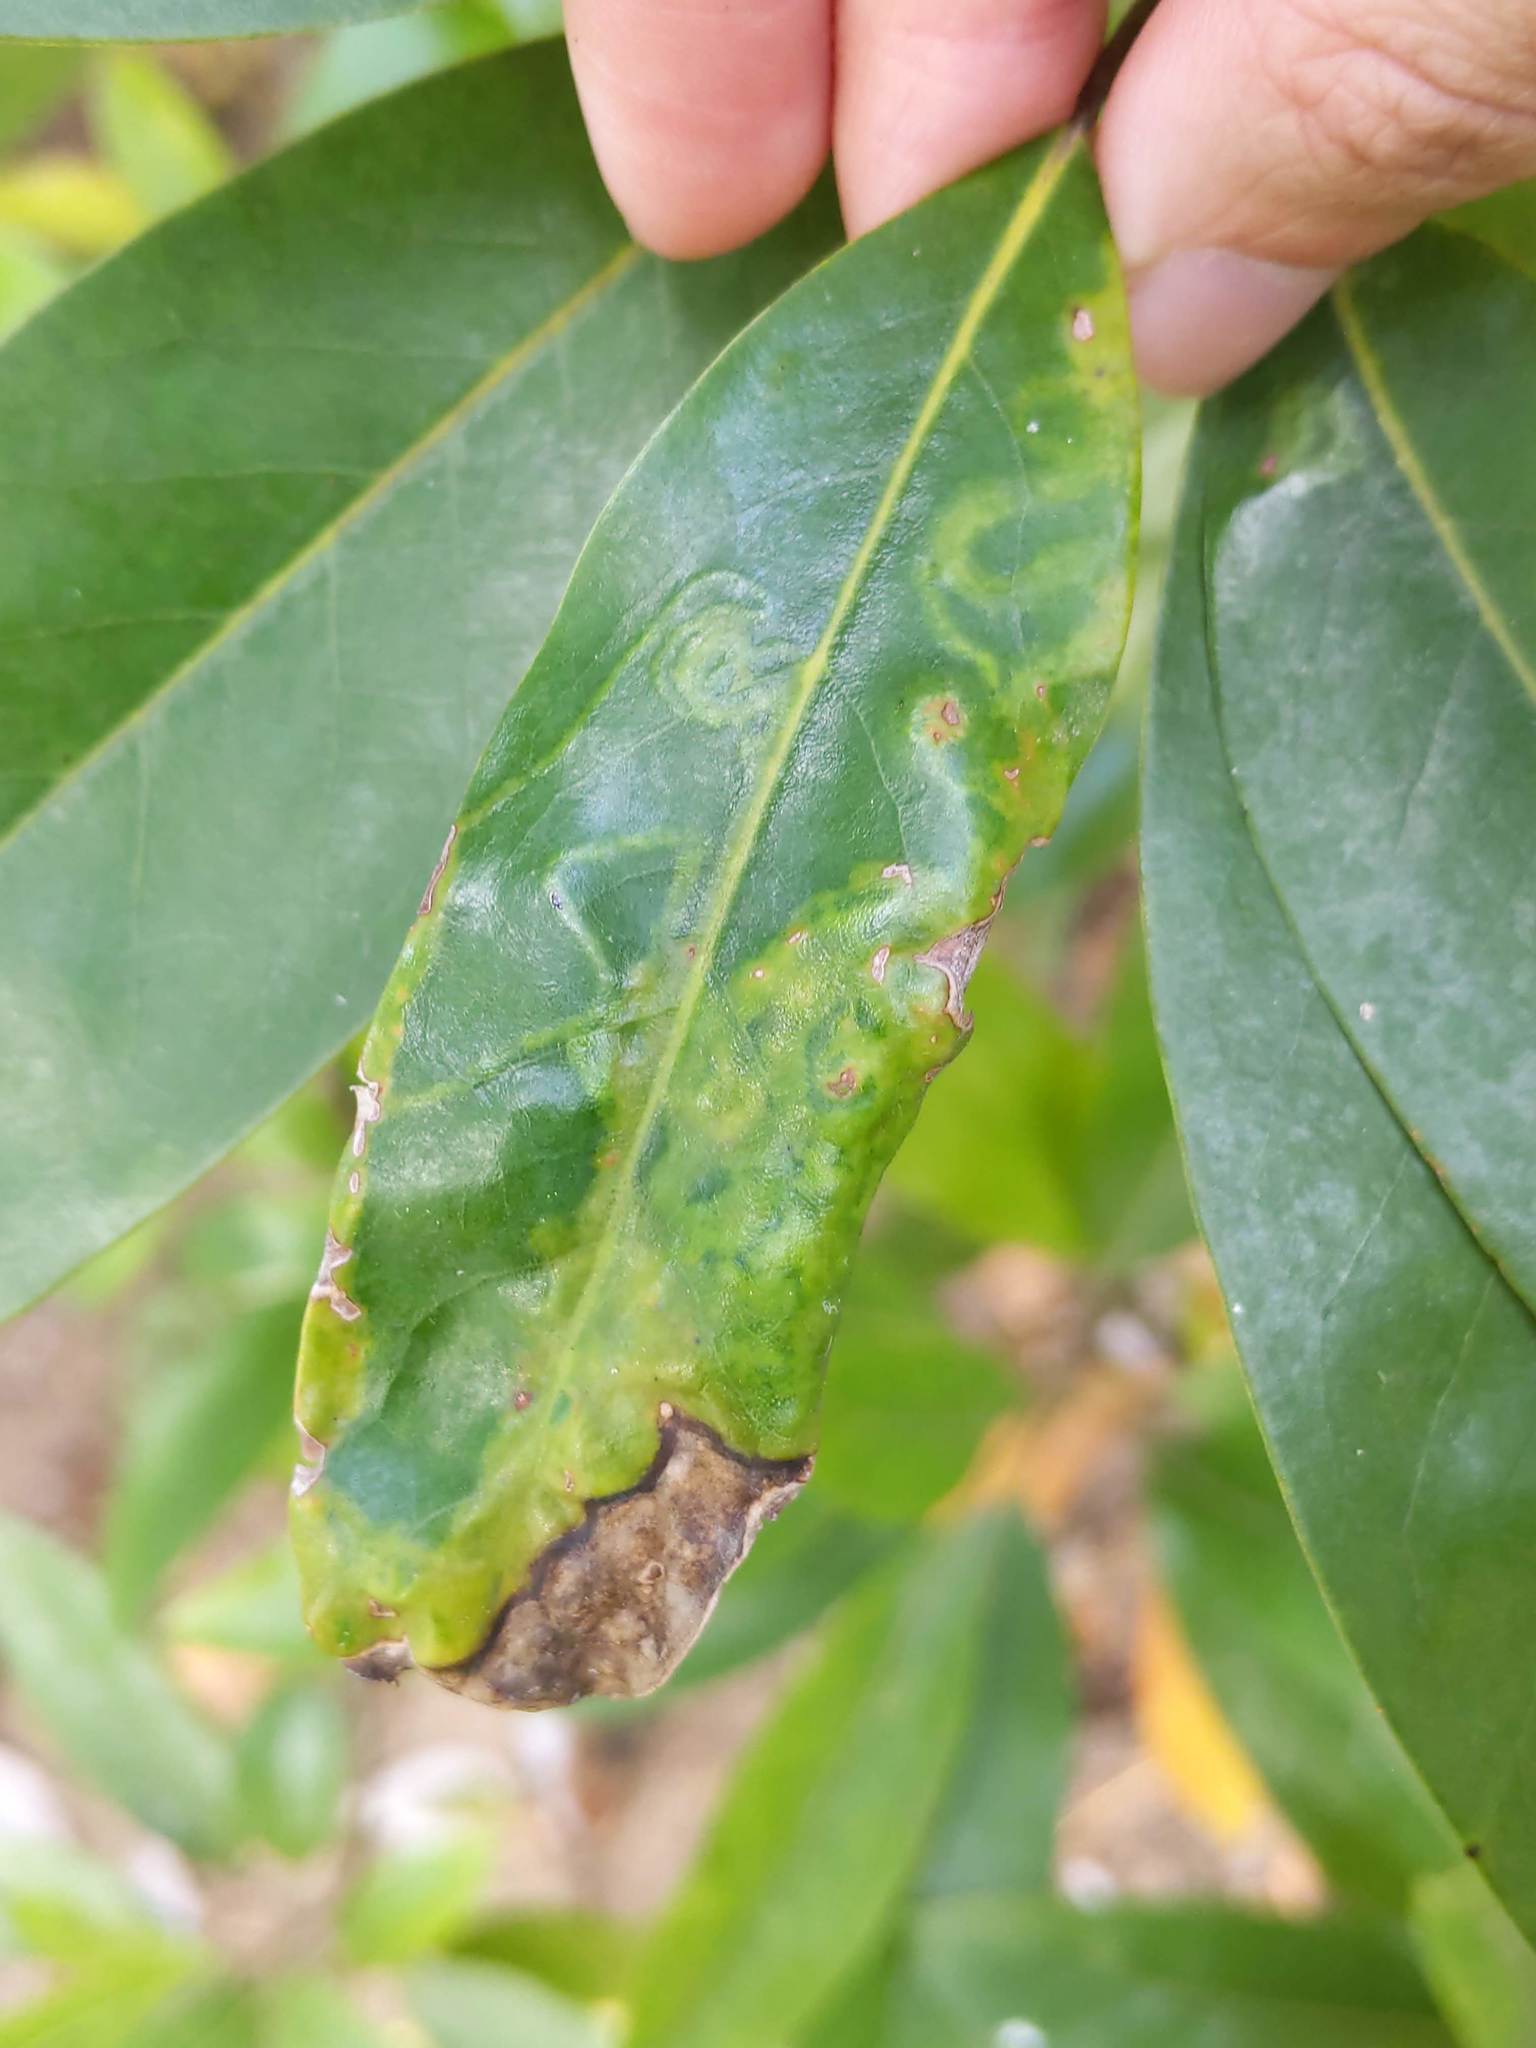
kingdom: Animalia
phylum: Arthropoda
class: Insecta
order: Lepidoptera
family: Gracillariidae
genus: Phyllocnistis
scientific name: Phyllocnistis liriodendronella
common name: Tulip tree leaf miner
